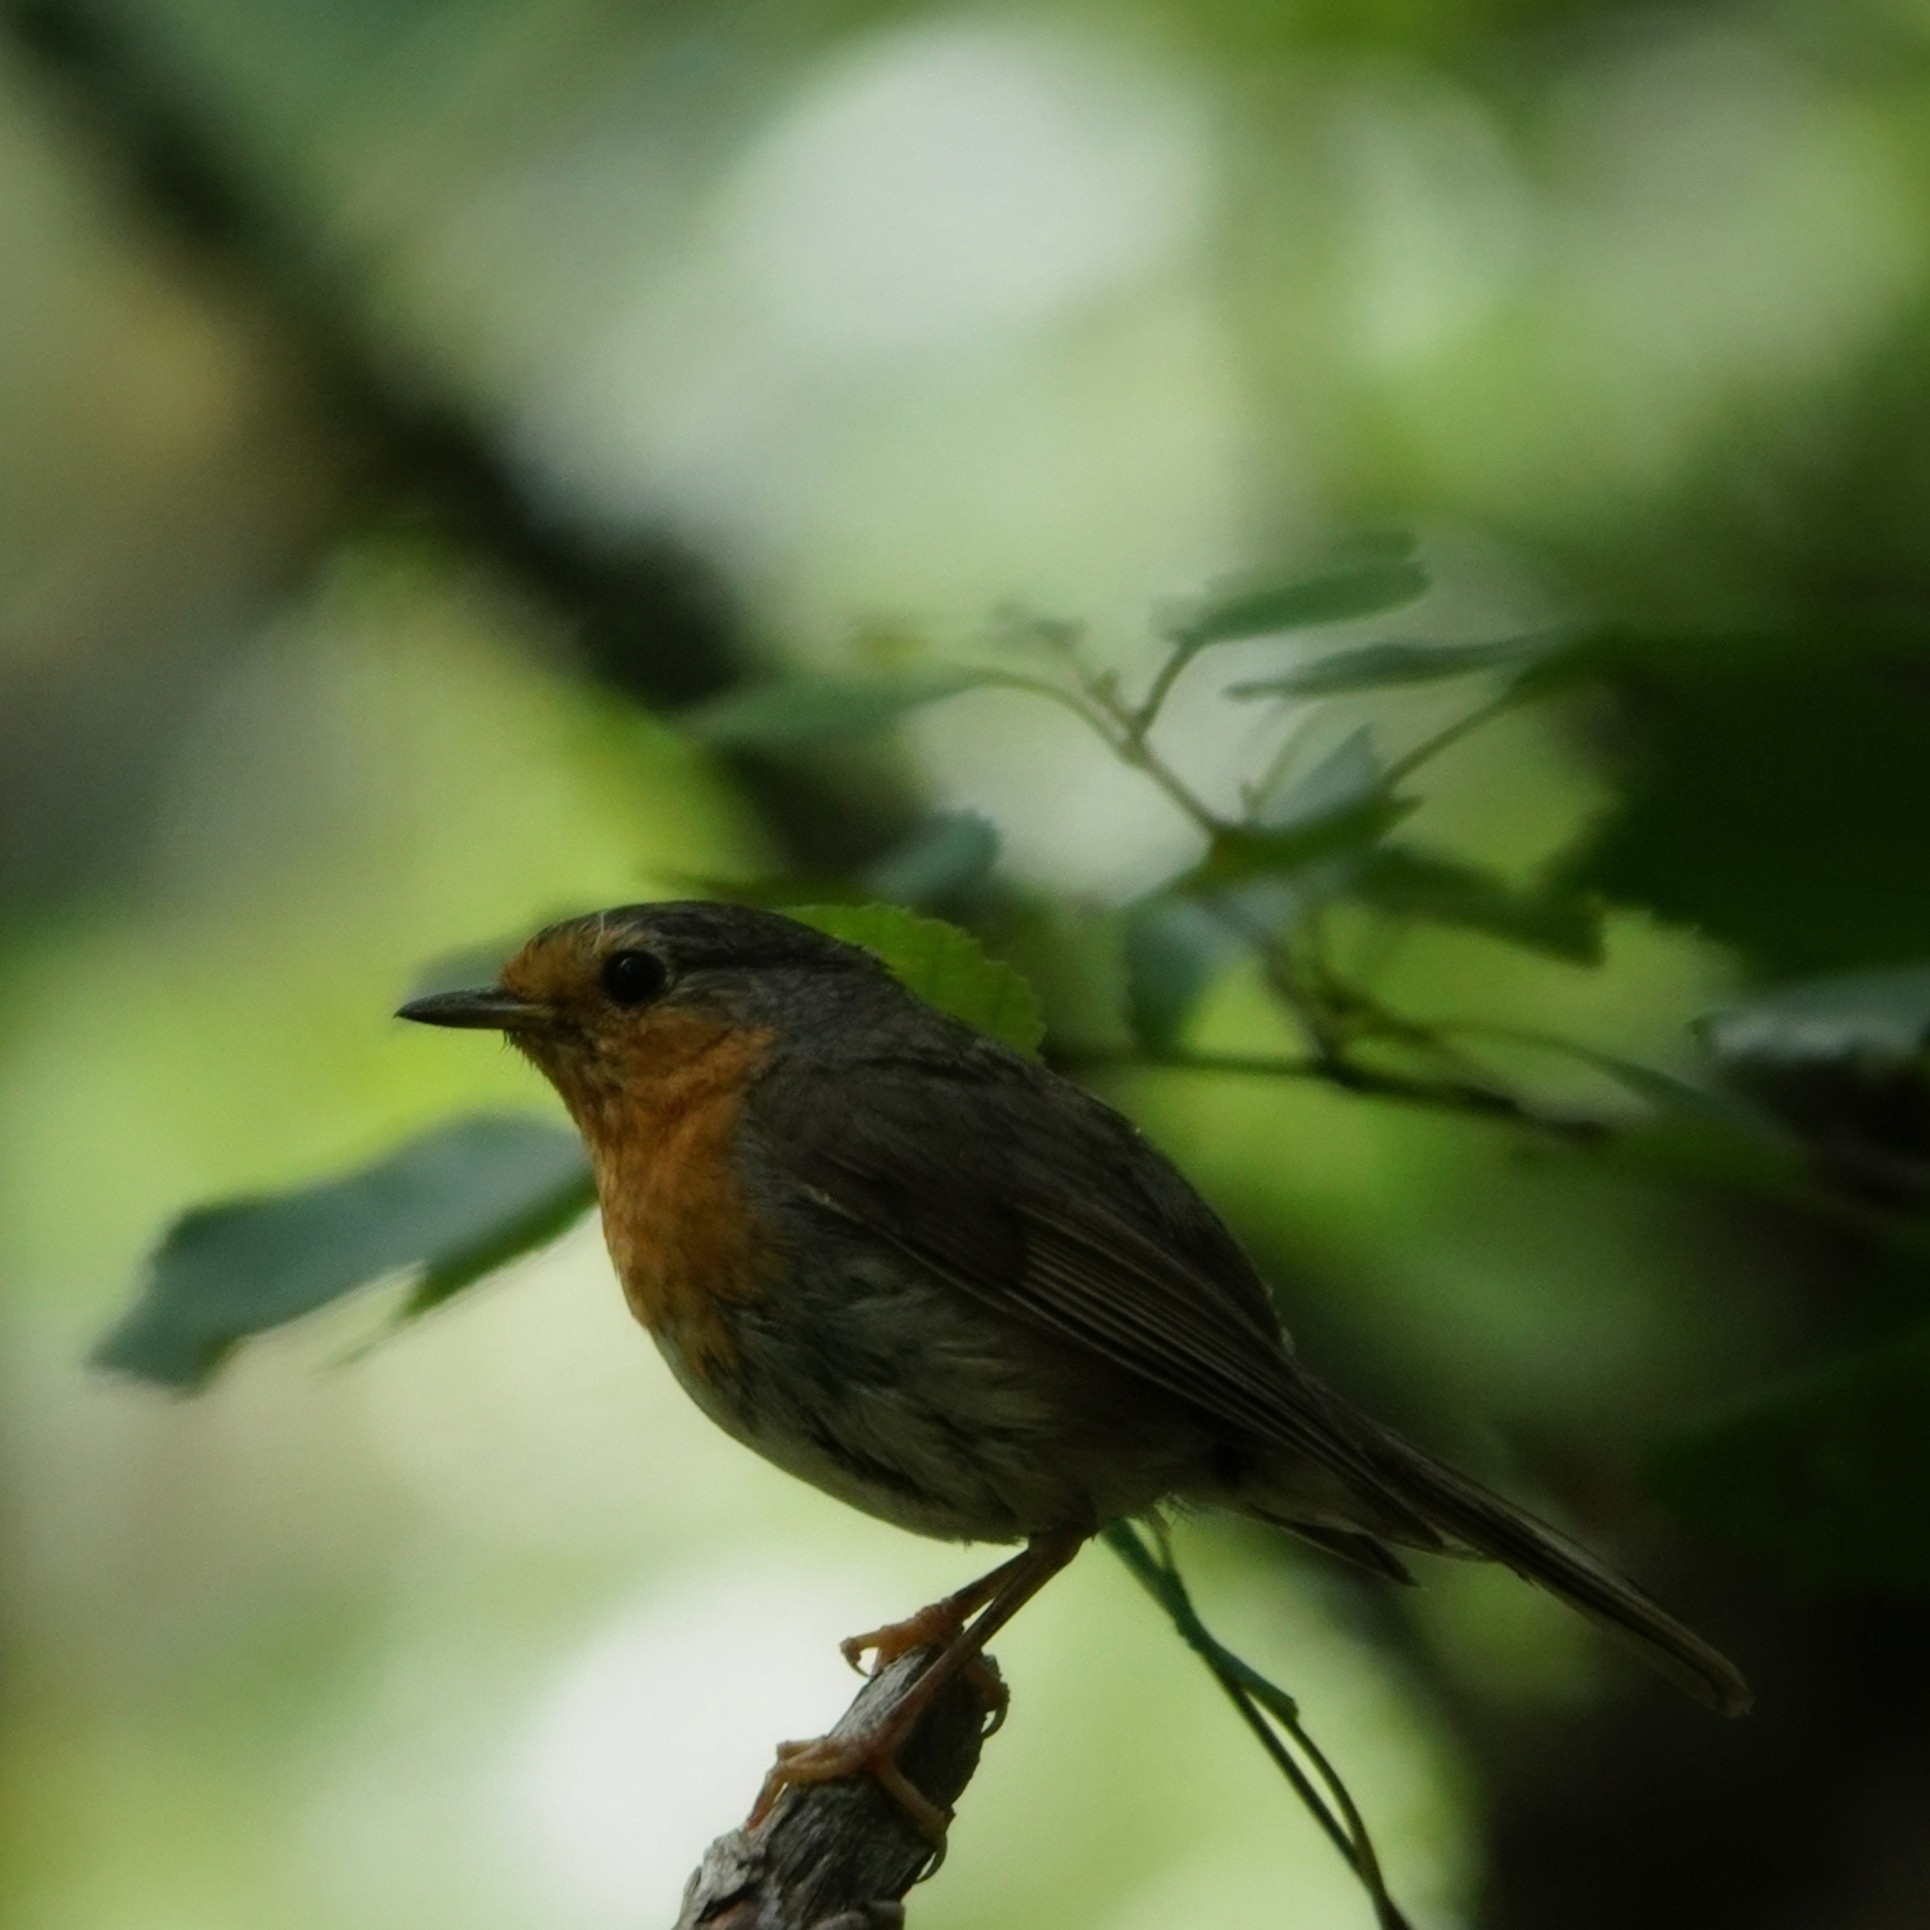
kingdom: Animalia
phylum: Chordata
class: Aves
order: Passeriformes
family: Muscicapidae
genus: Erithacus
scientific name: Erithacus rubecula
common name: European robin
